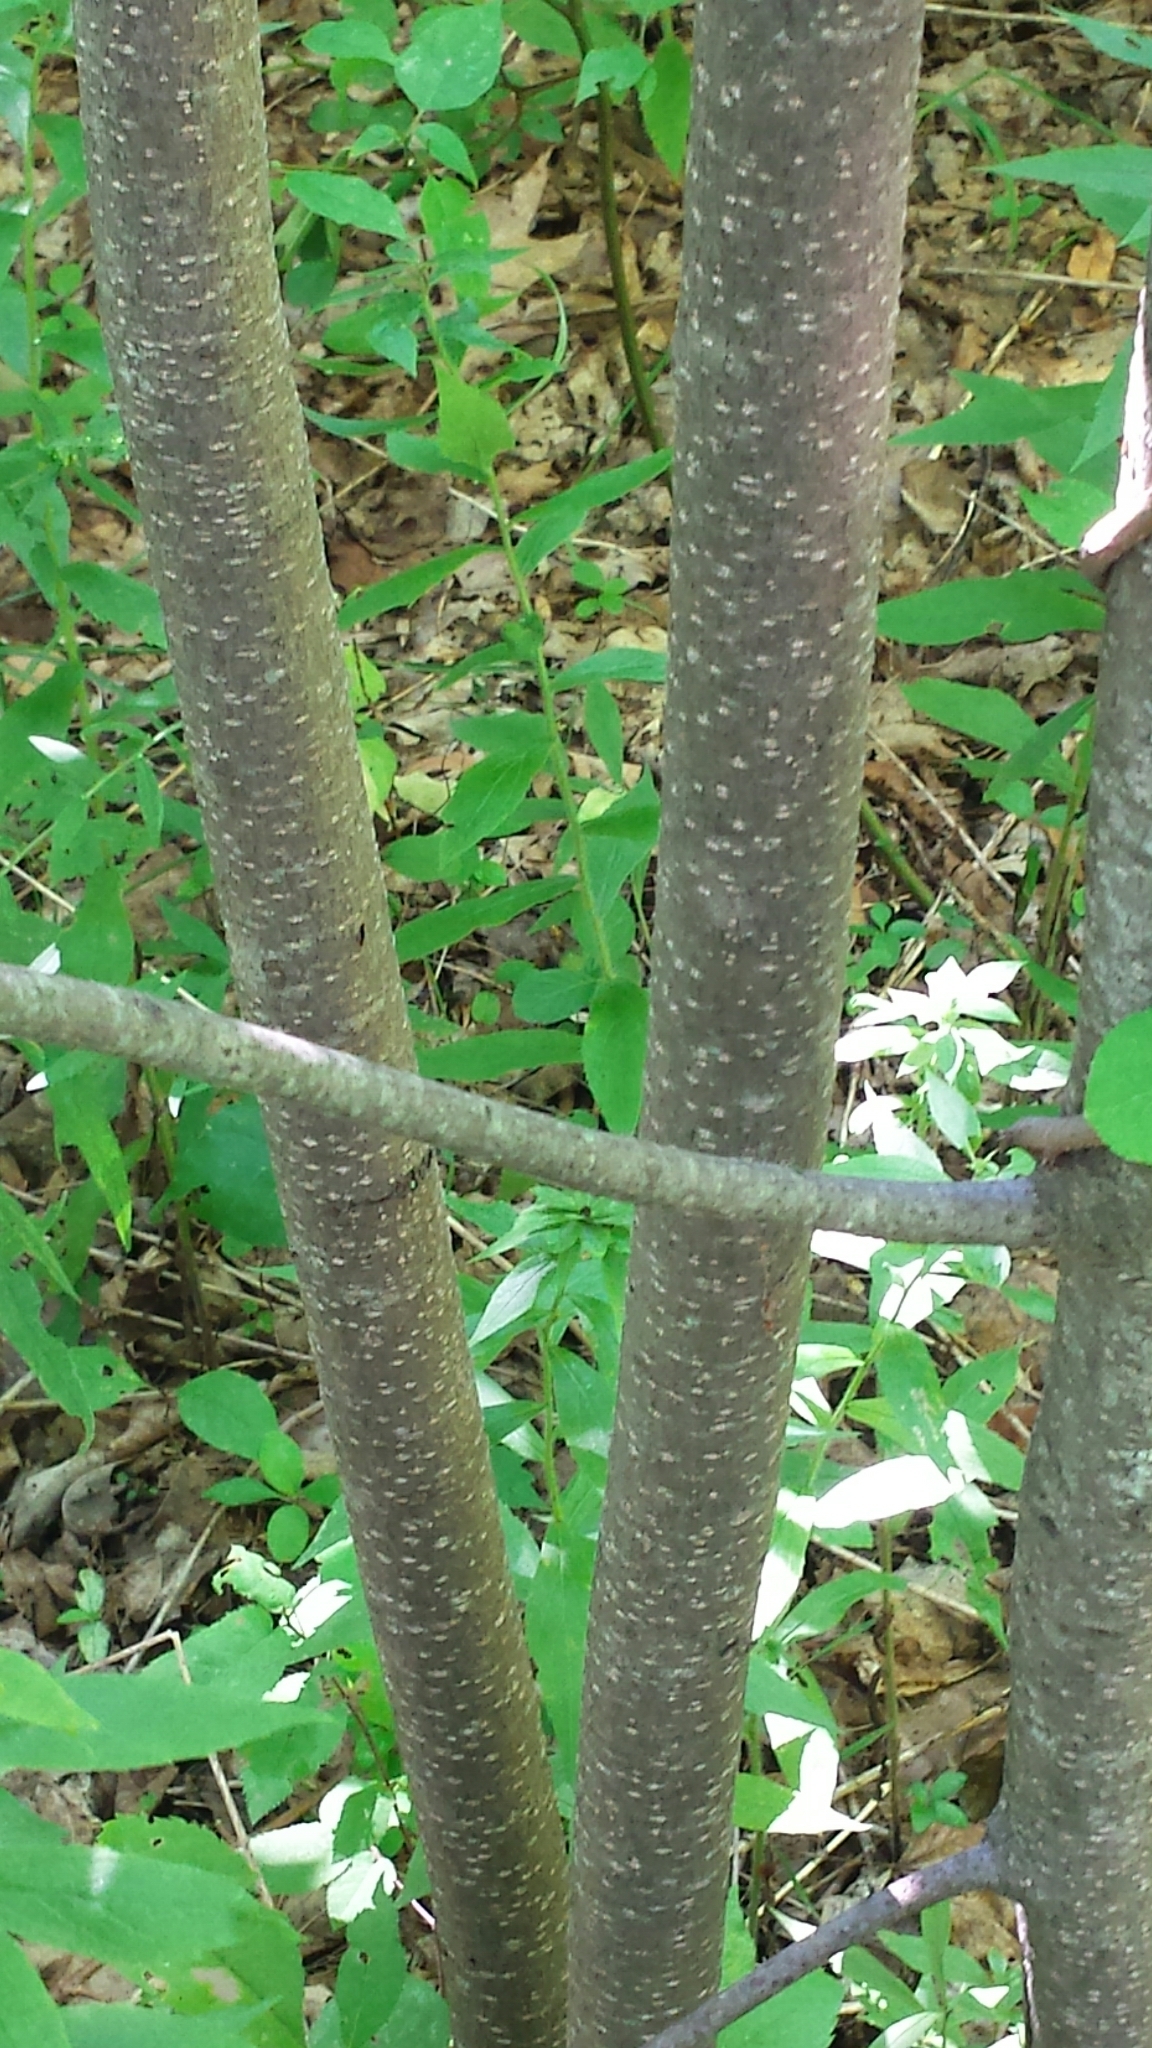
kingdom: Plantae
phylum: Tracheophyta
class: Magnoliopsida
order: Rosales
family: Rhamnaceae
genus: Frangula
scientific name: Frangula alnus
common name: Alder buckthorn
